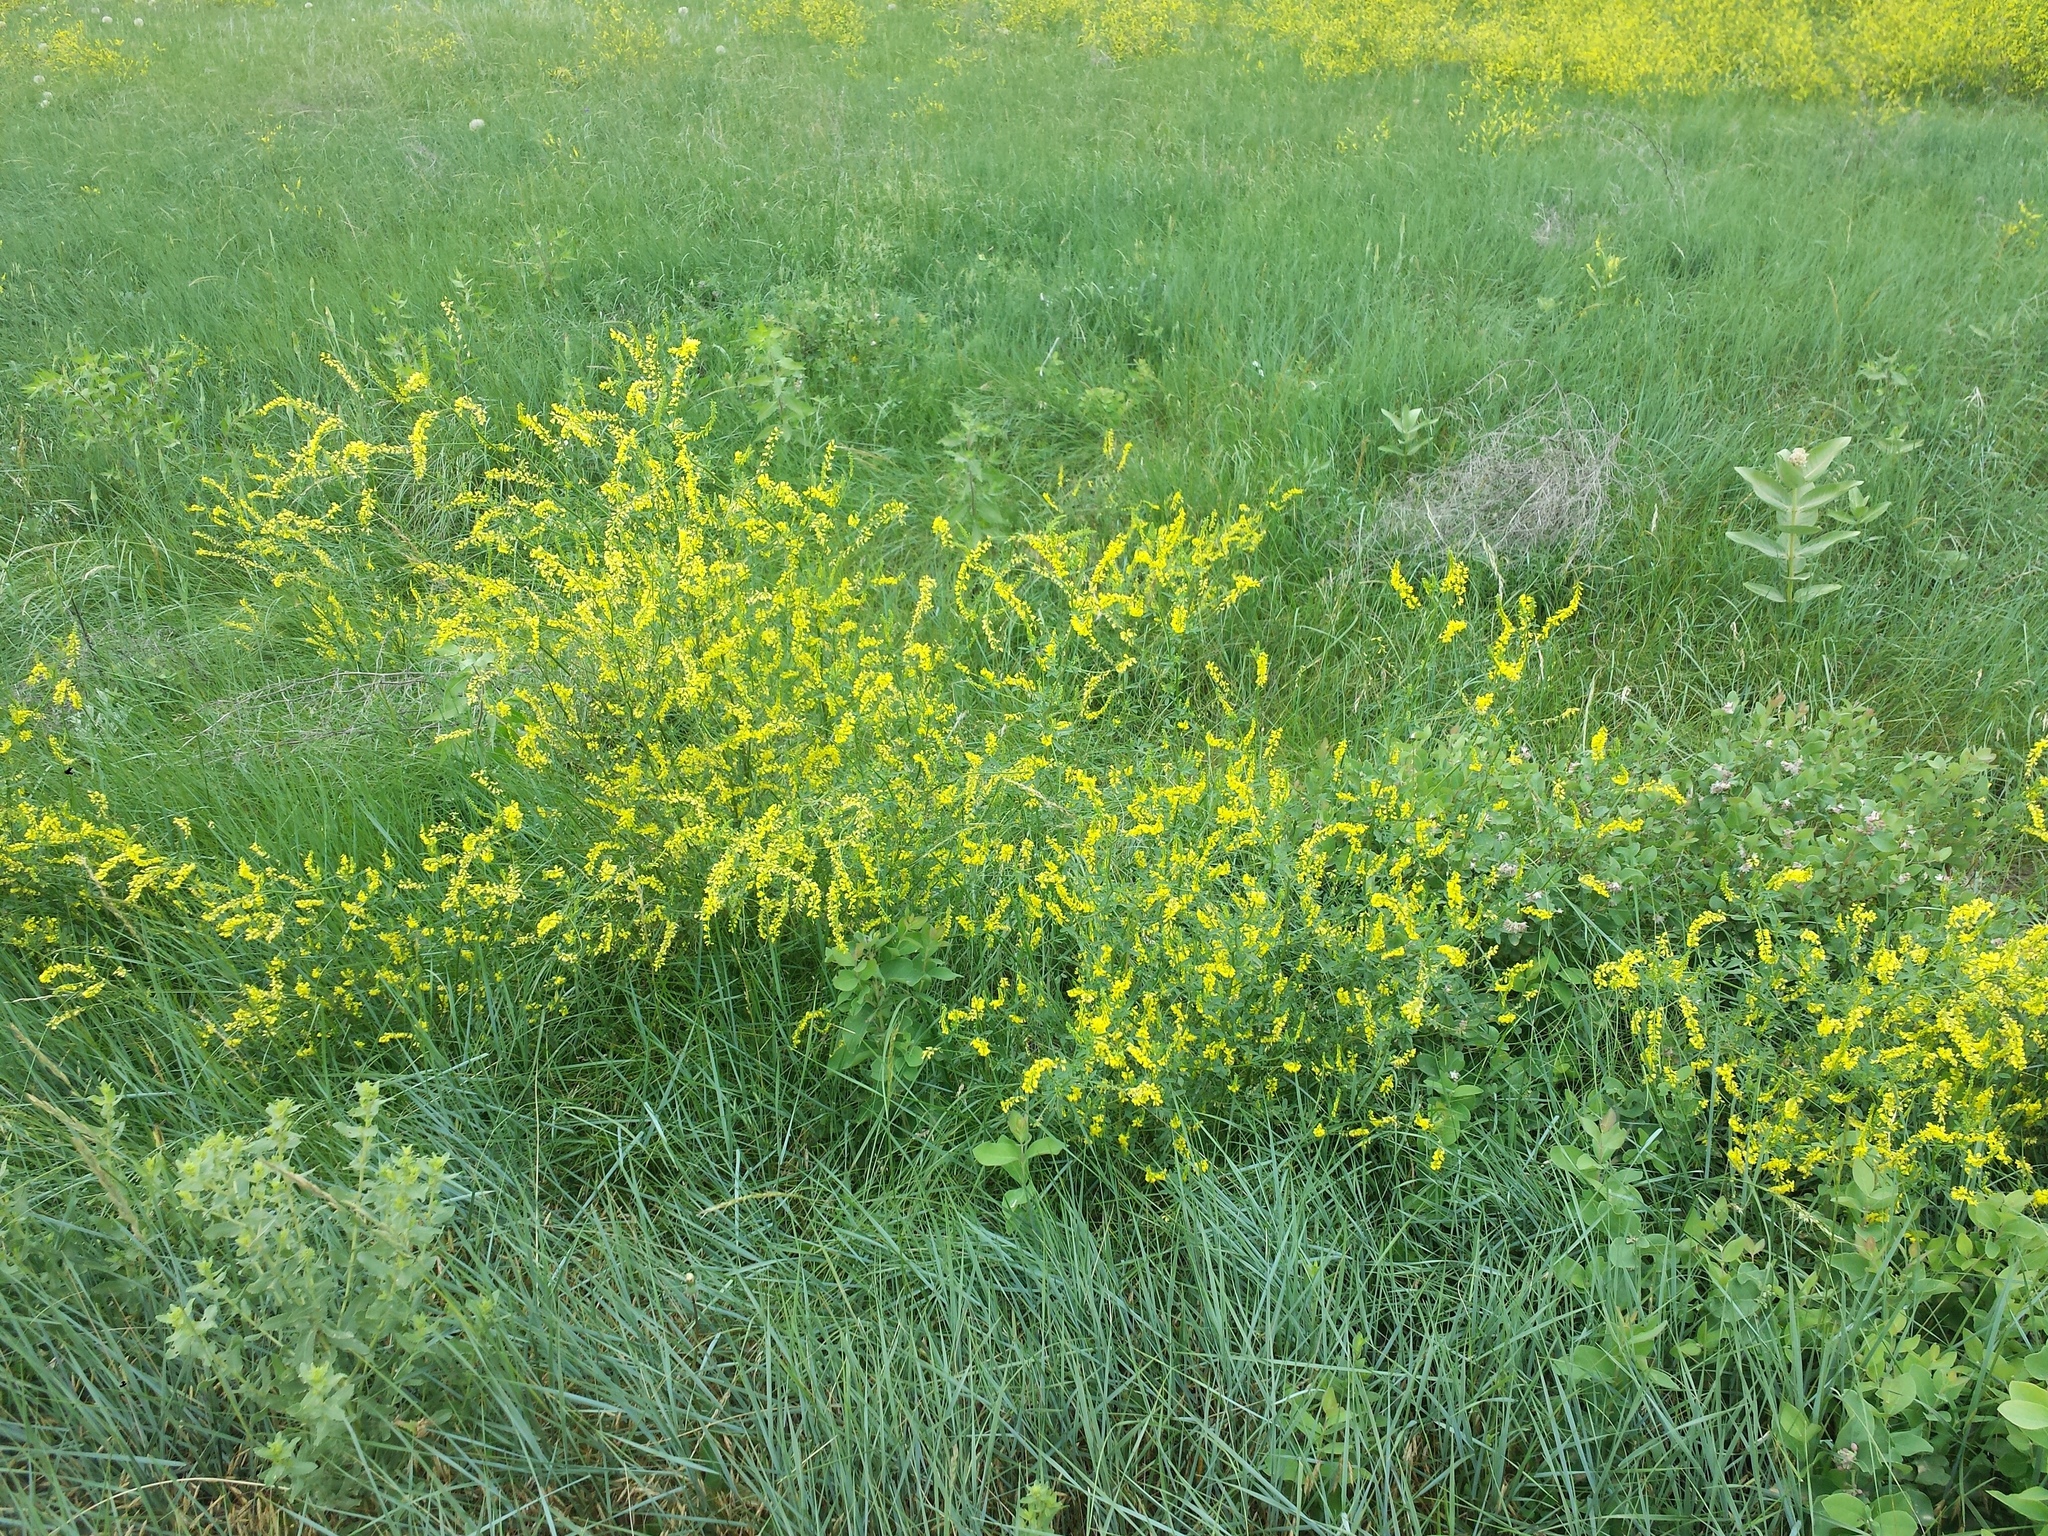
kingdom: Plantae
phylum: Tracheophyta
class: Magnoliopsida
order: Fabales
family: Fabaceae
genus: Melilotus
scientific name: Melilotus officinalis
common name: Sweetclover
